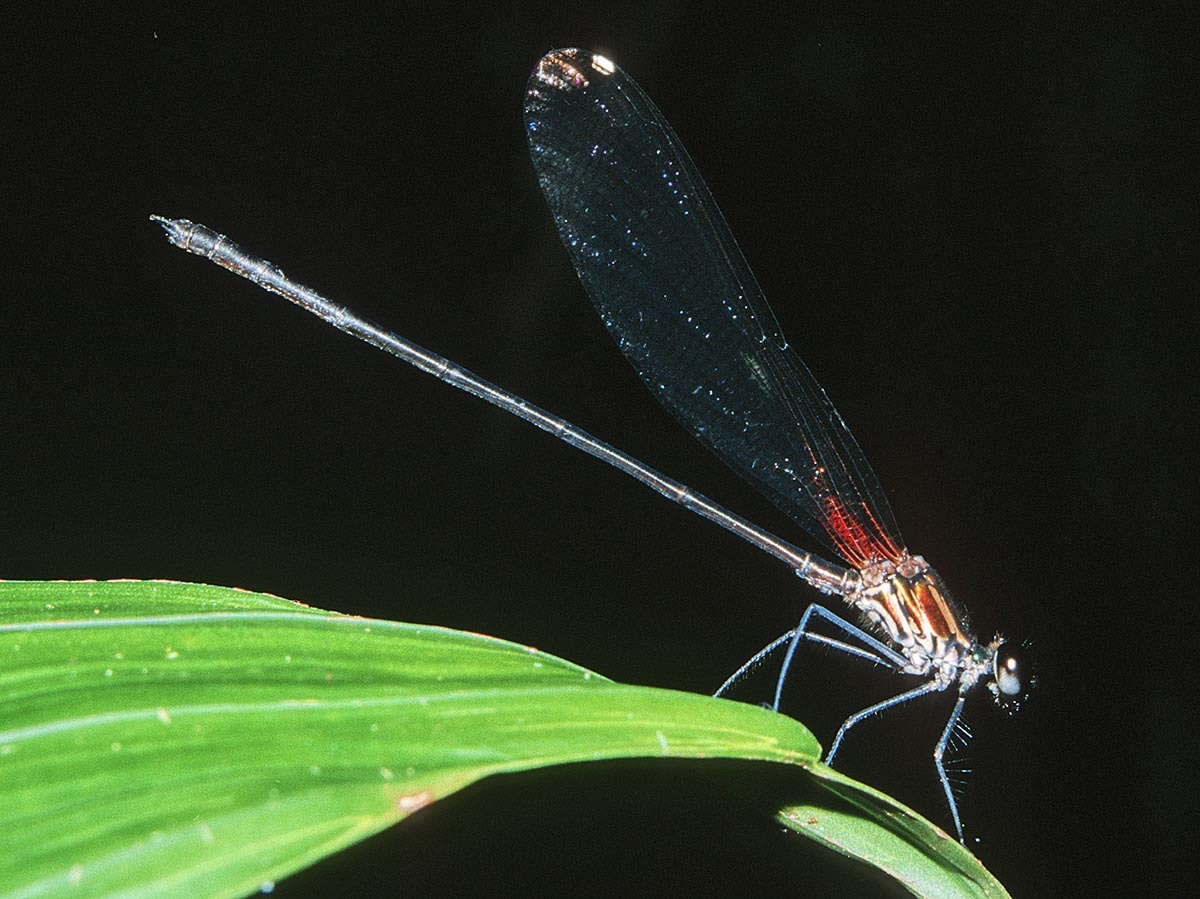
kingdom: Animalia
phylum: Arthropoda
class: Insecta
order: Odonata
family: Calopterygidae
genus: Hetaerina
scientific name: Hetaerina westfalli
